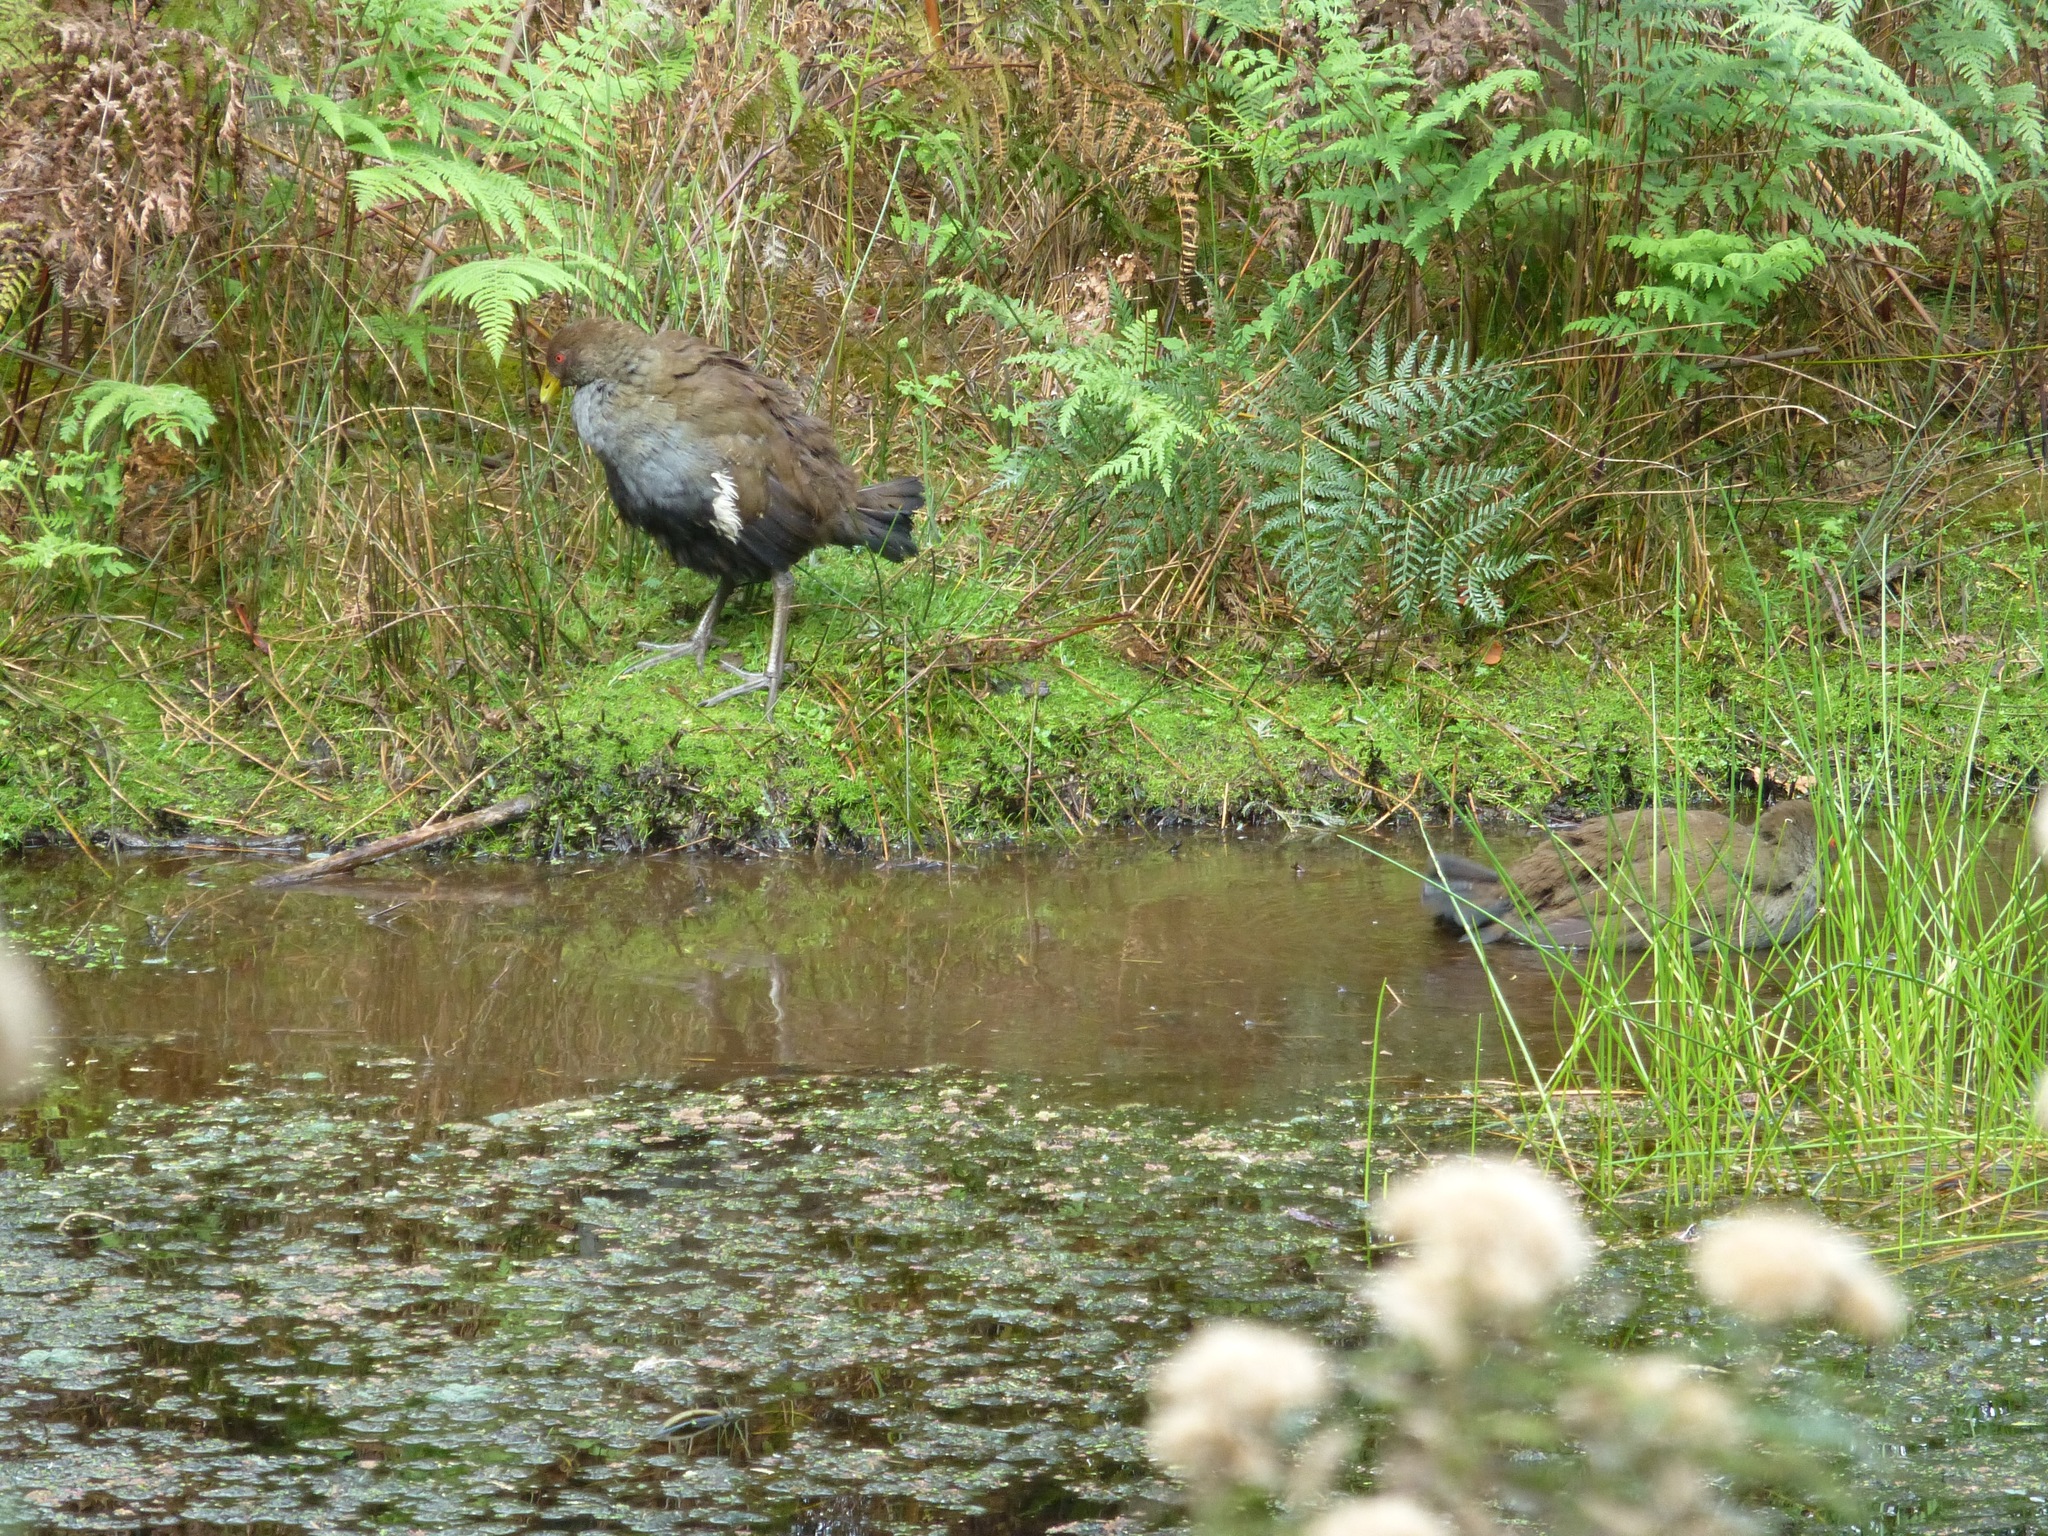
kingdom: Animalia
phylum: Chordata
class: Aves
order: Gruiformes
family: Rallidae
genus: Gallinula
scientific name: Gallinula mortierii
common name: Tasmanian nativehen
